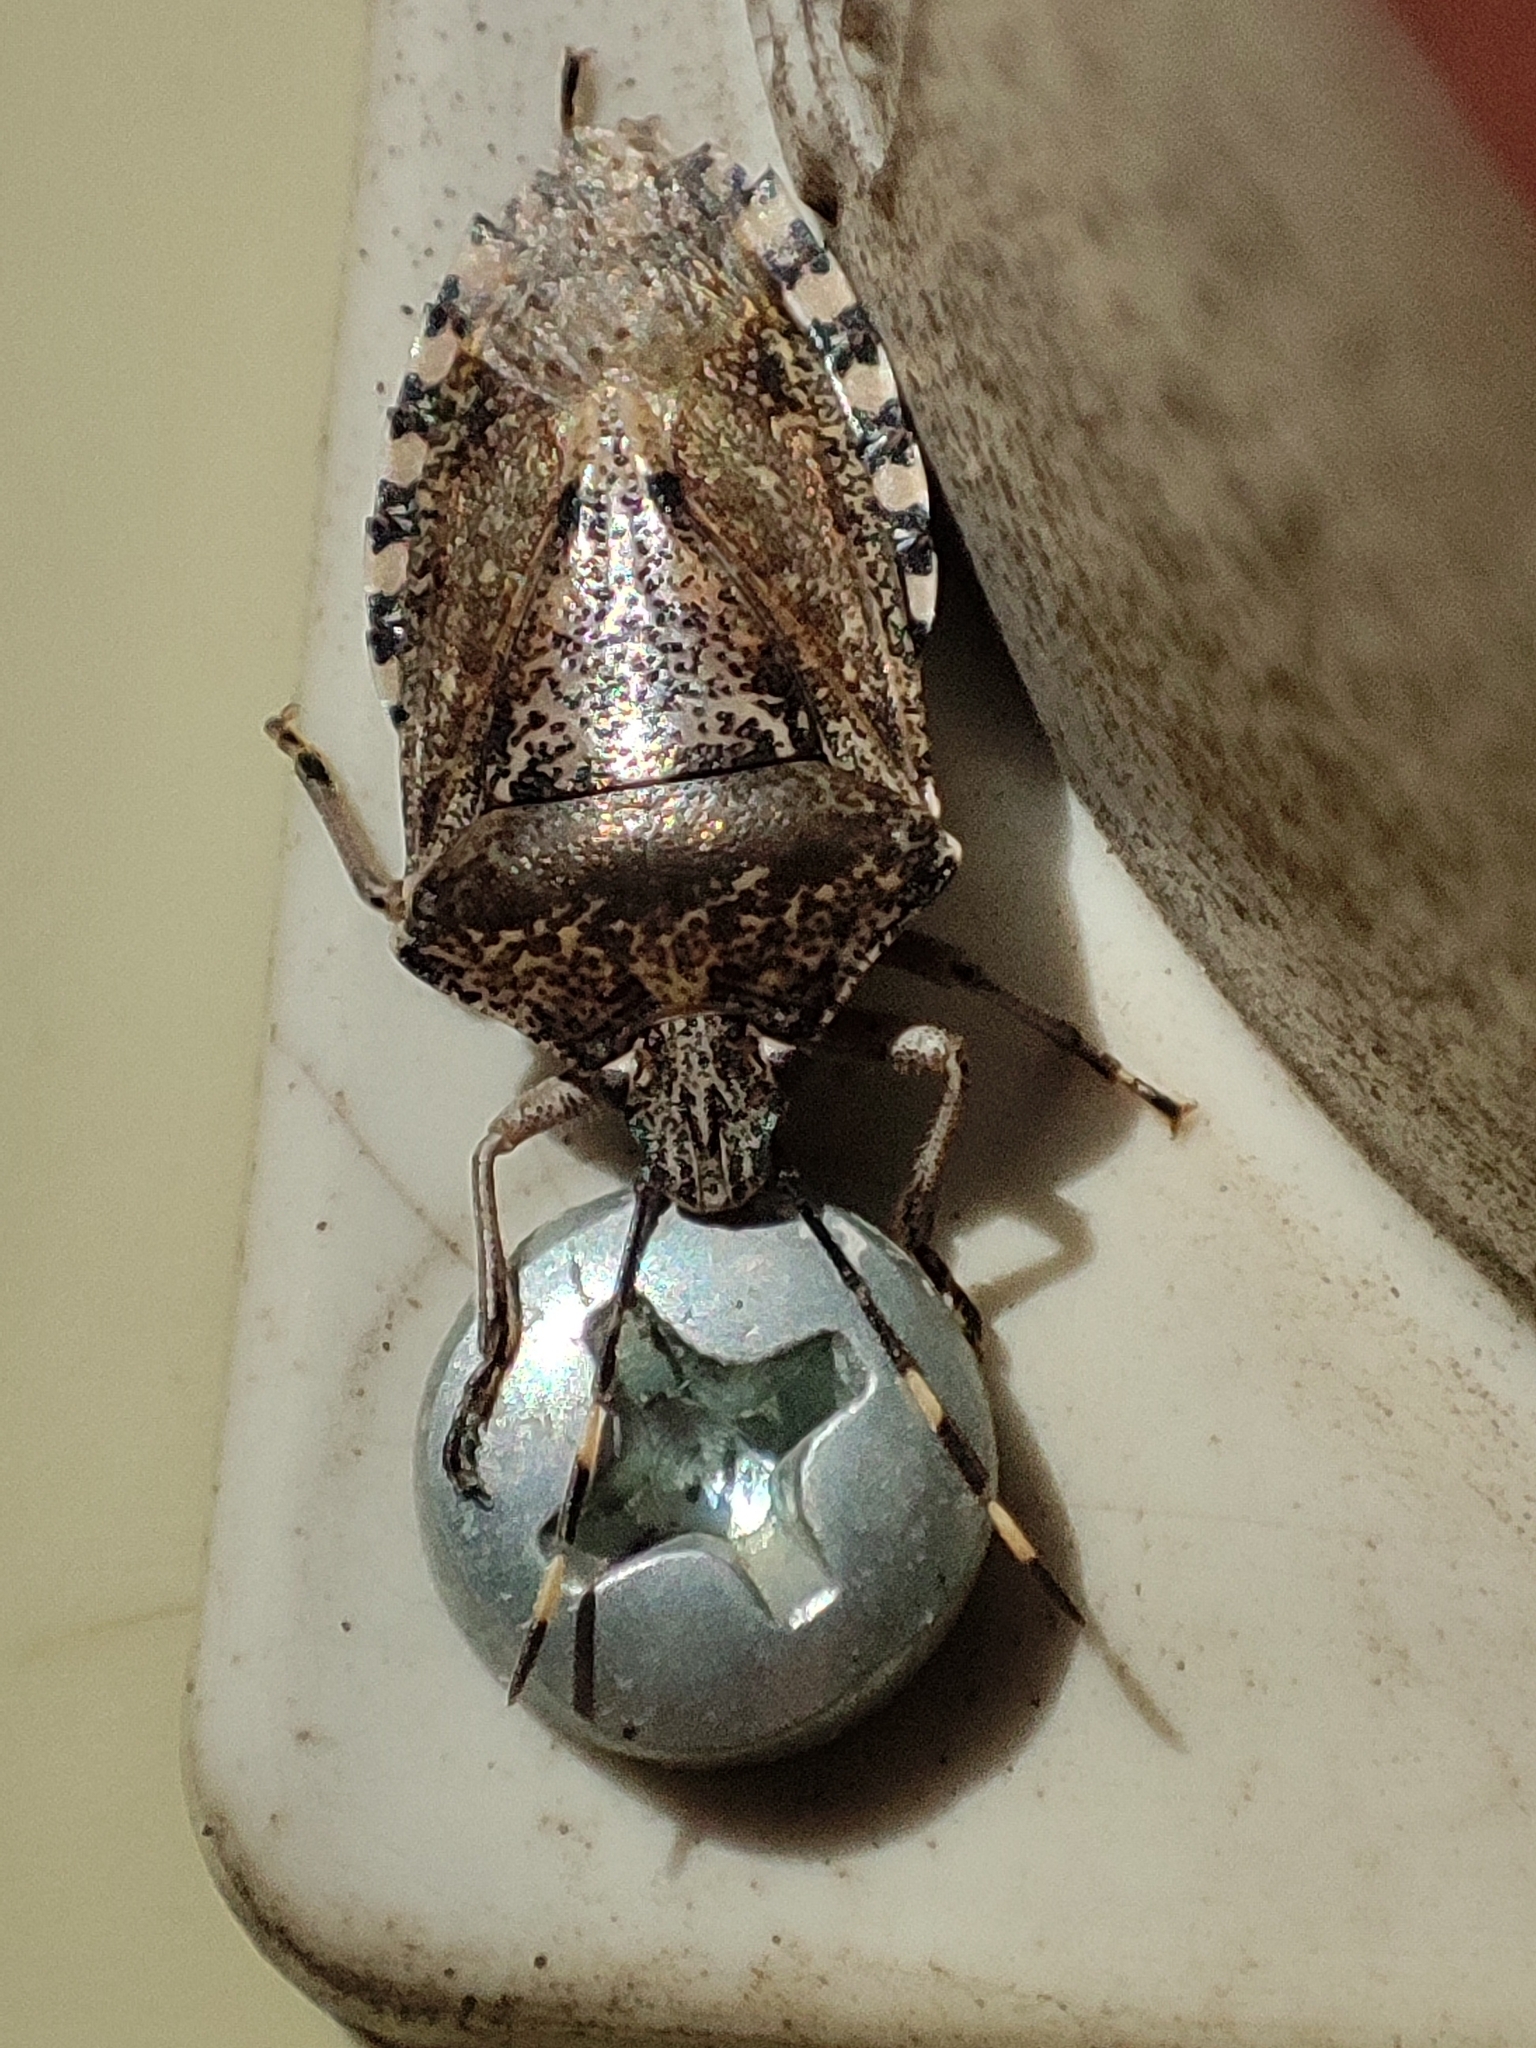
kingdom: Animalia
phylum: Arthropoda
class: Insecta
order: Hemiptera
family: Pentatomidae
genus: Rhaphigaster
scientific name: Rhaphigaster nebulosa
